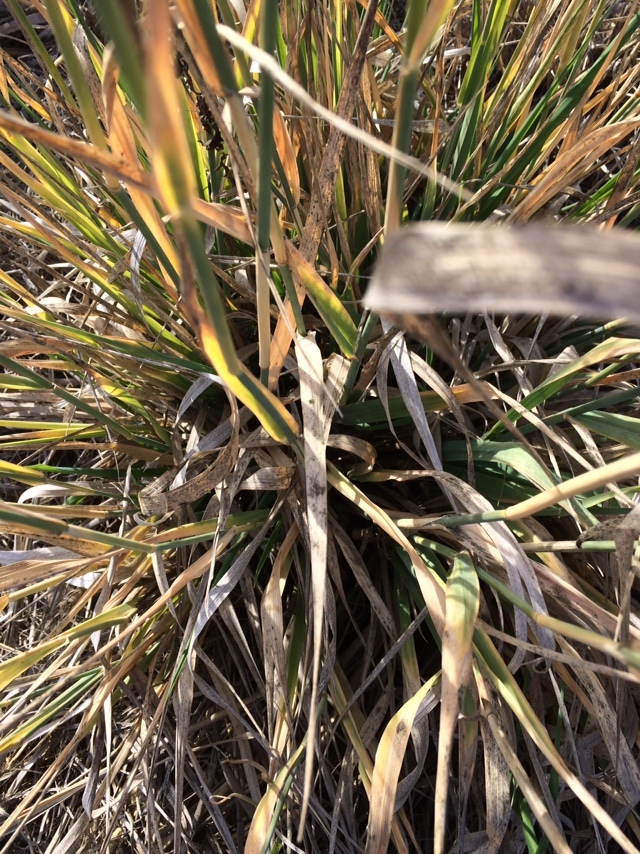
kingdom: Plantae
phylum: Tracheophyta
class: Liliopsida
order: Poales
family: Poaceae
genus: Phalaris
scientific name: Phalaris aquatica
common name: Bulbous canary-grass
